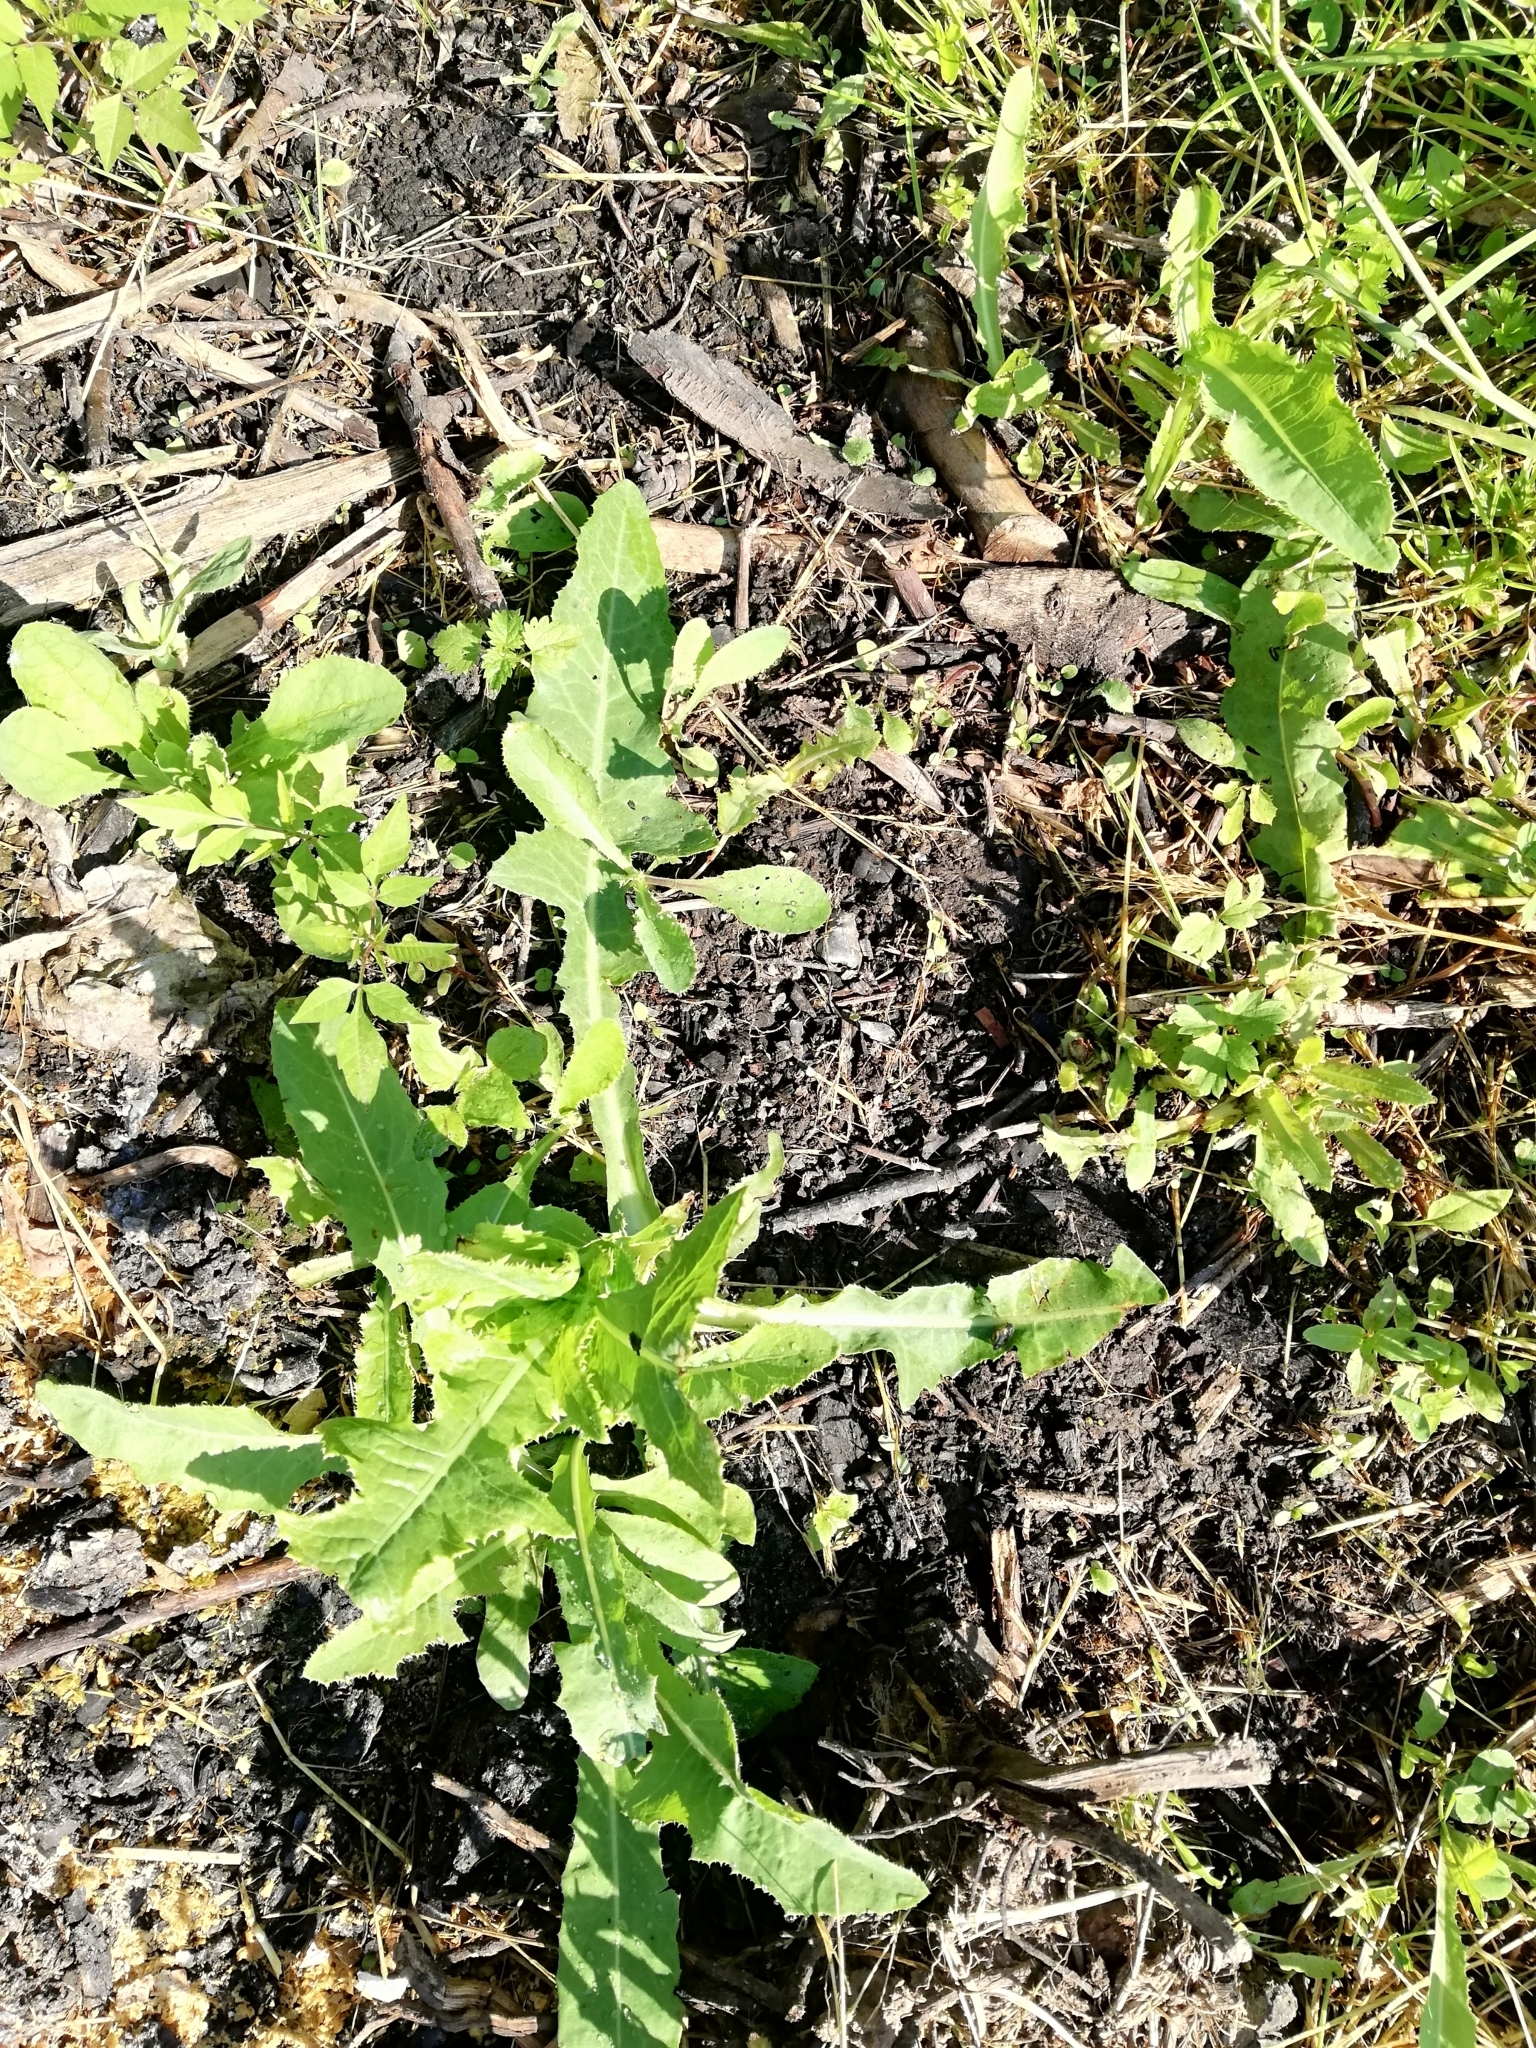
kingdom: Plantae
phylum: Tracheophyta
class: Magnoliopsida
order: Asterales
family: Asteraceae
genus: Sonchus
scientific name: Sonchus arvensis
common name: Perennial sow-thistle
